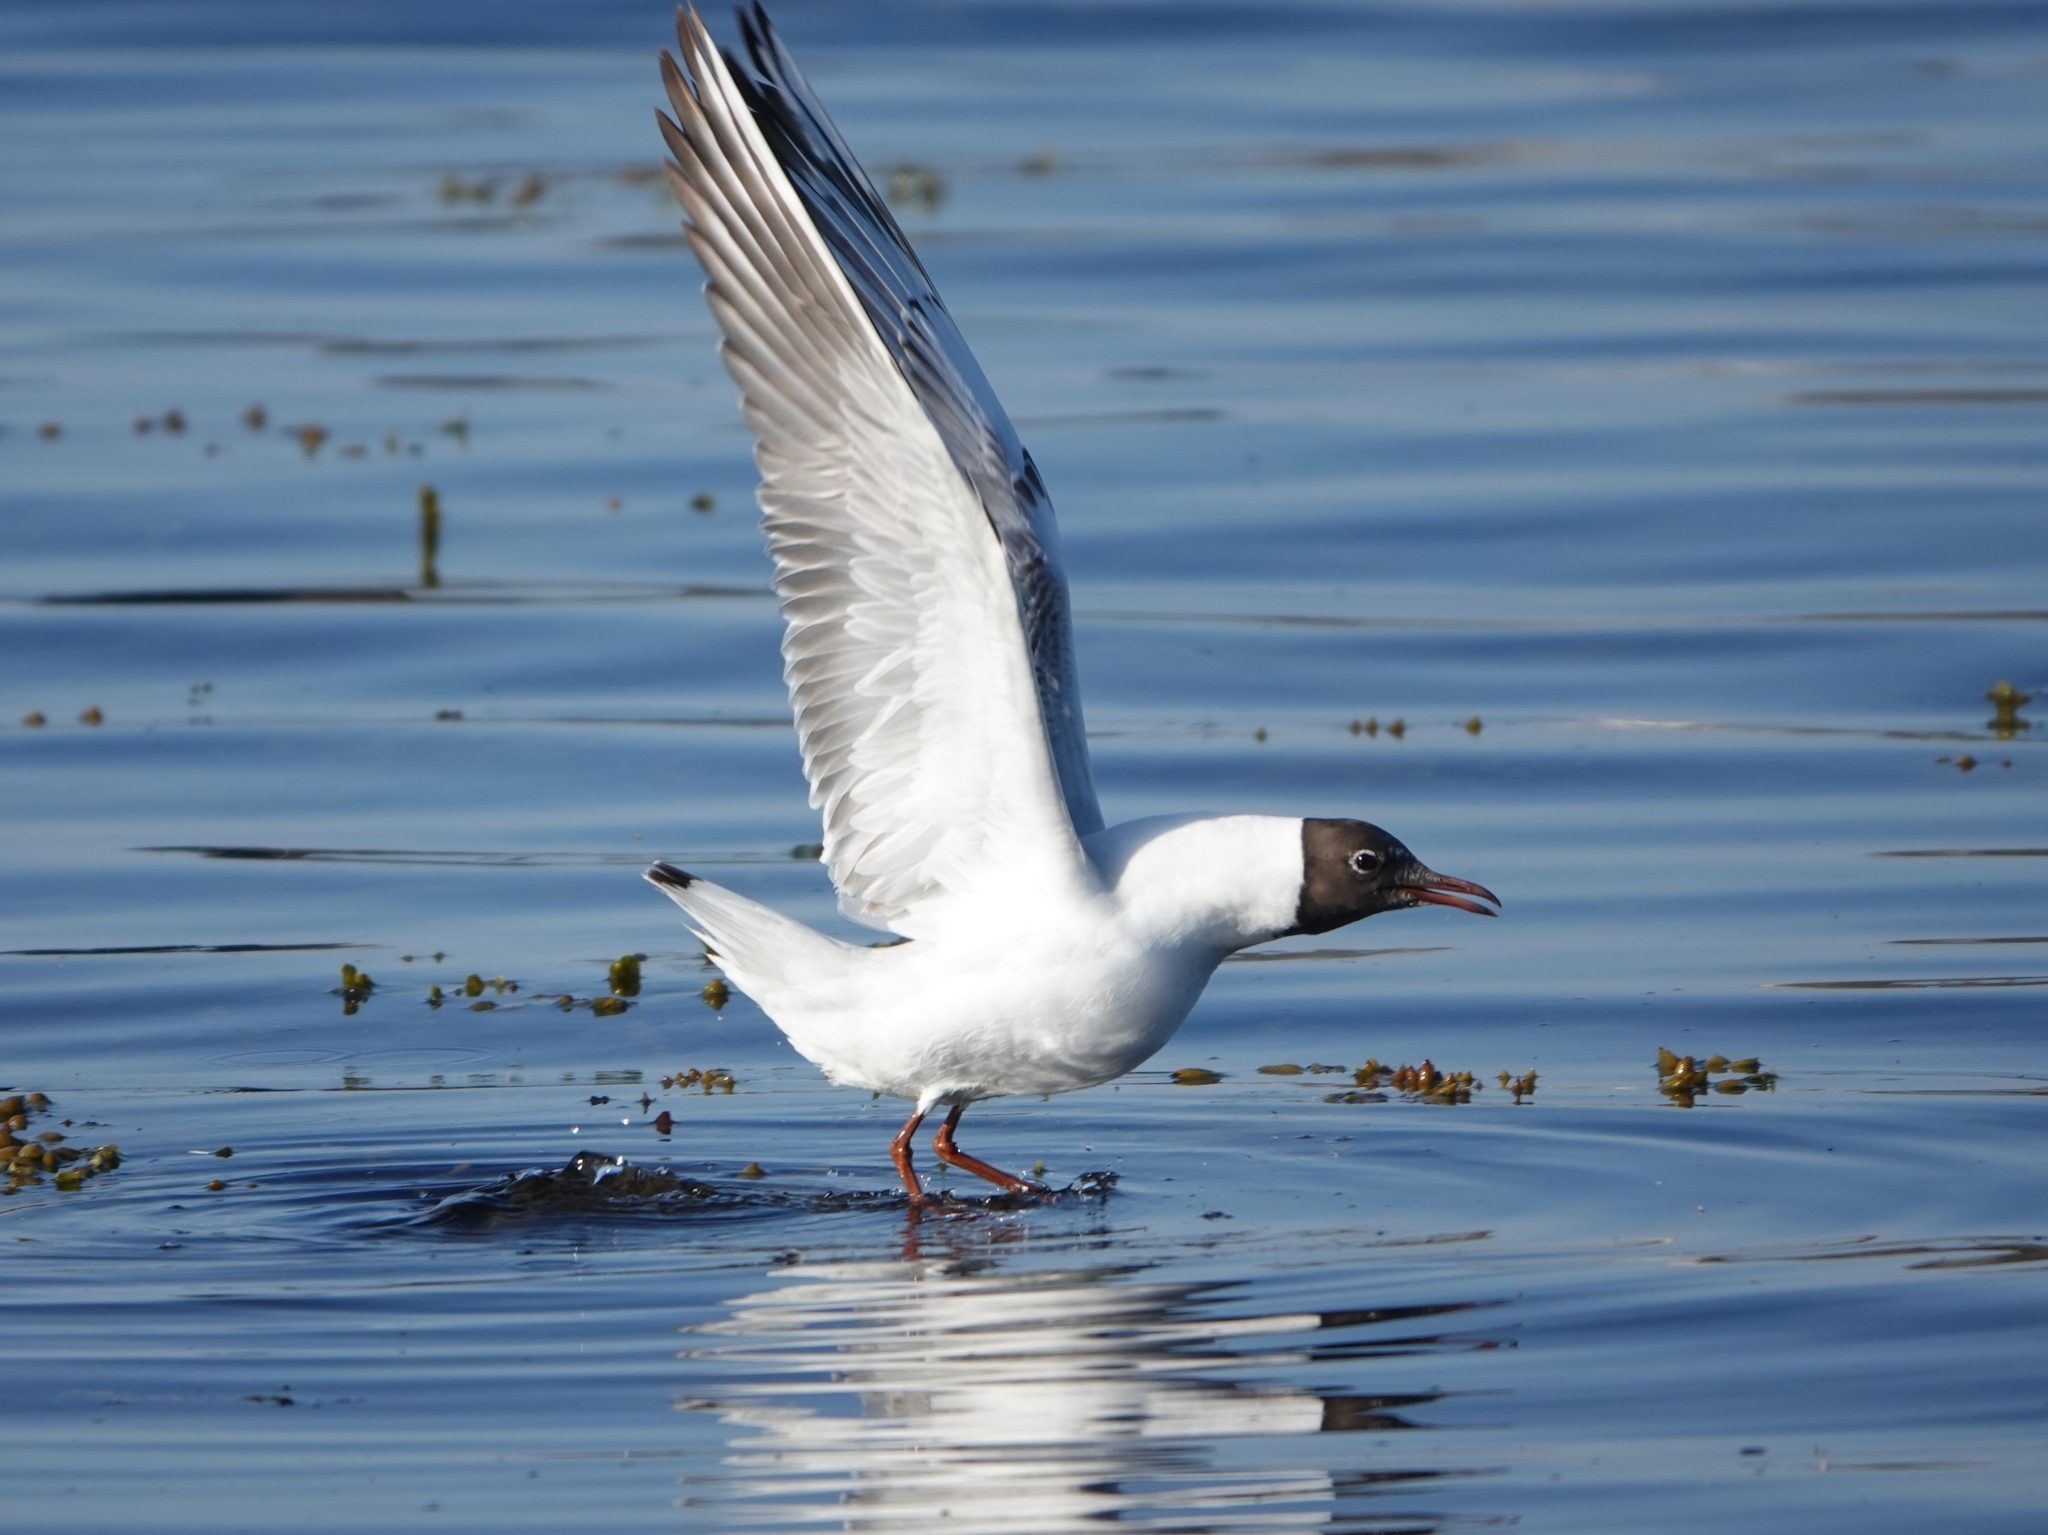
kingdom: Animalia
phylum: Chordata
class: Aves
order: Charadriiformes
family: Laridae
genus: Chroicocephalus
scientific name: Chroicocephalus ridibundus
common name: Black-headed gull
